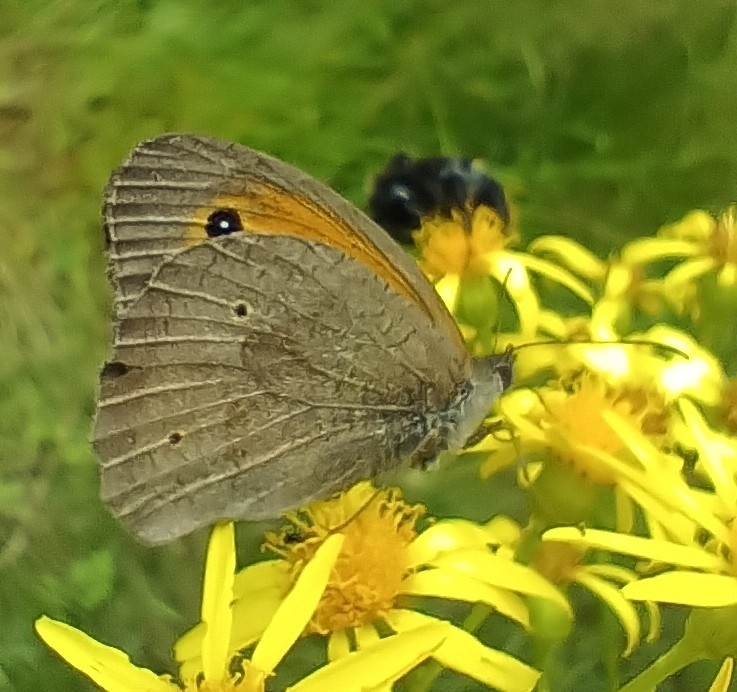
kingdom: Animalia
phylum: Arthropoda
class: Insecta
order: Lepidoptera
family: Nymphalidae
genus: Maniola
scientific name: Maniola jurtina
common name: Meadow brown
